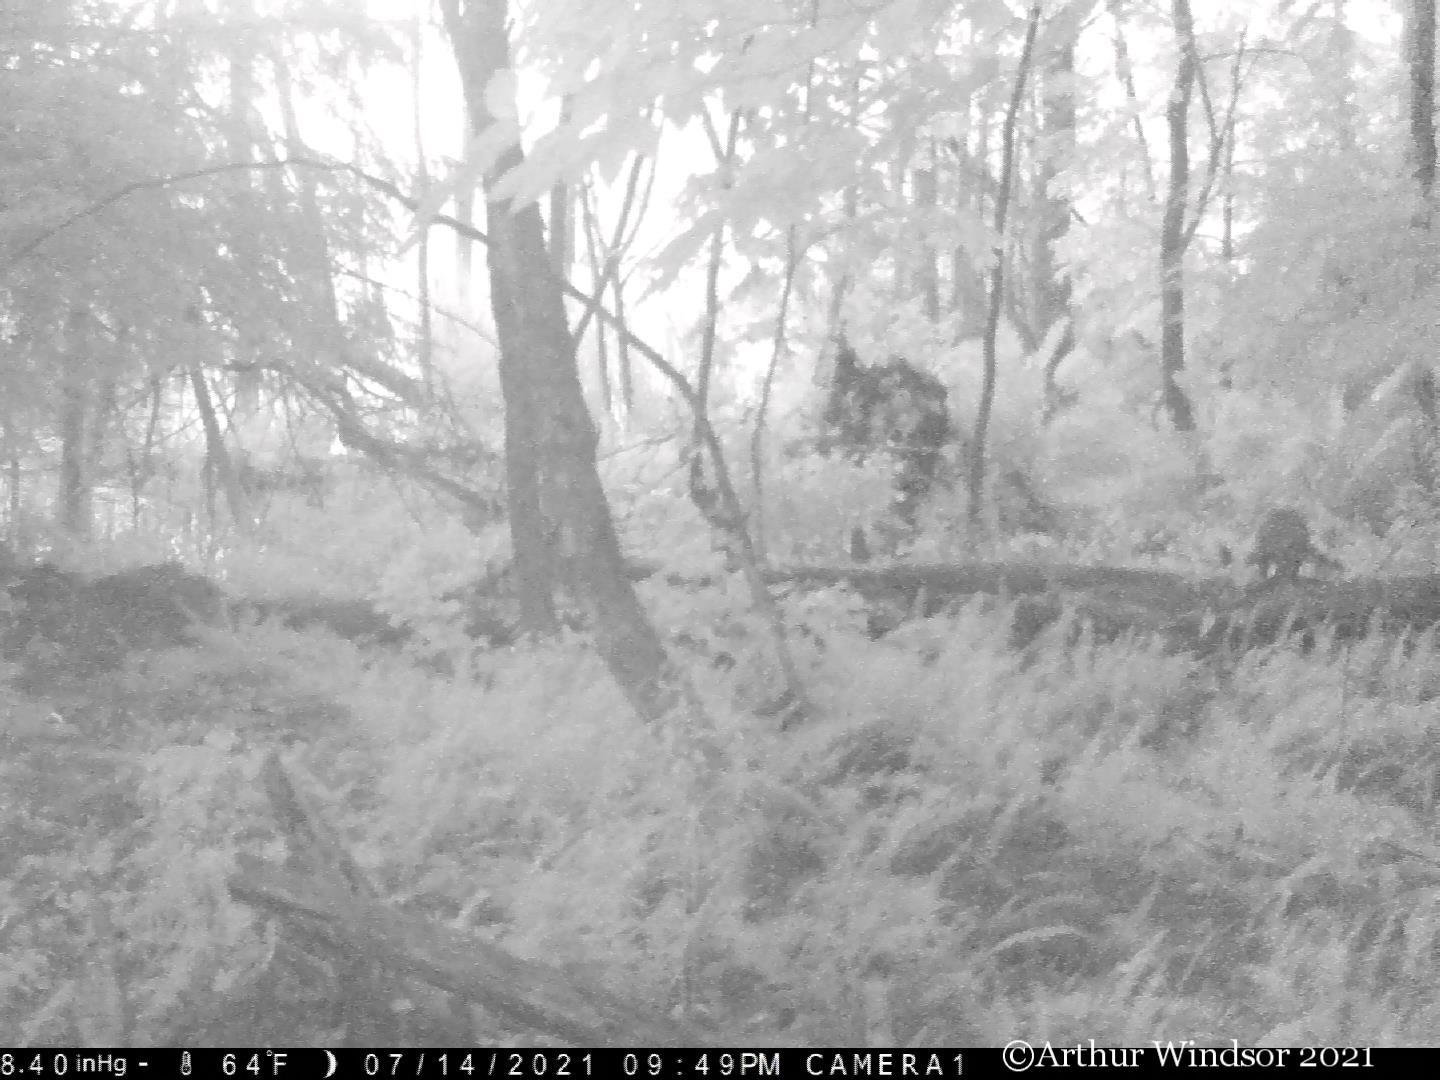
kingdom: Animalia
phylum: Chordata
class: Mammalia
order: Carnivora
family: Procyonidae
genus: Procyon
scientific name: Procyon lotor
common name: Raccoon
